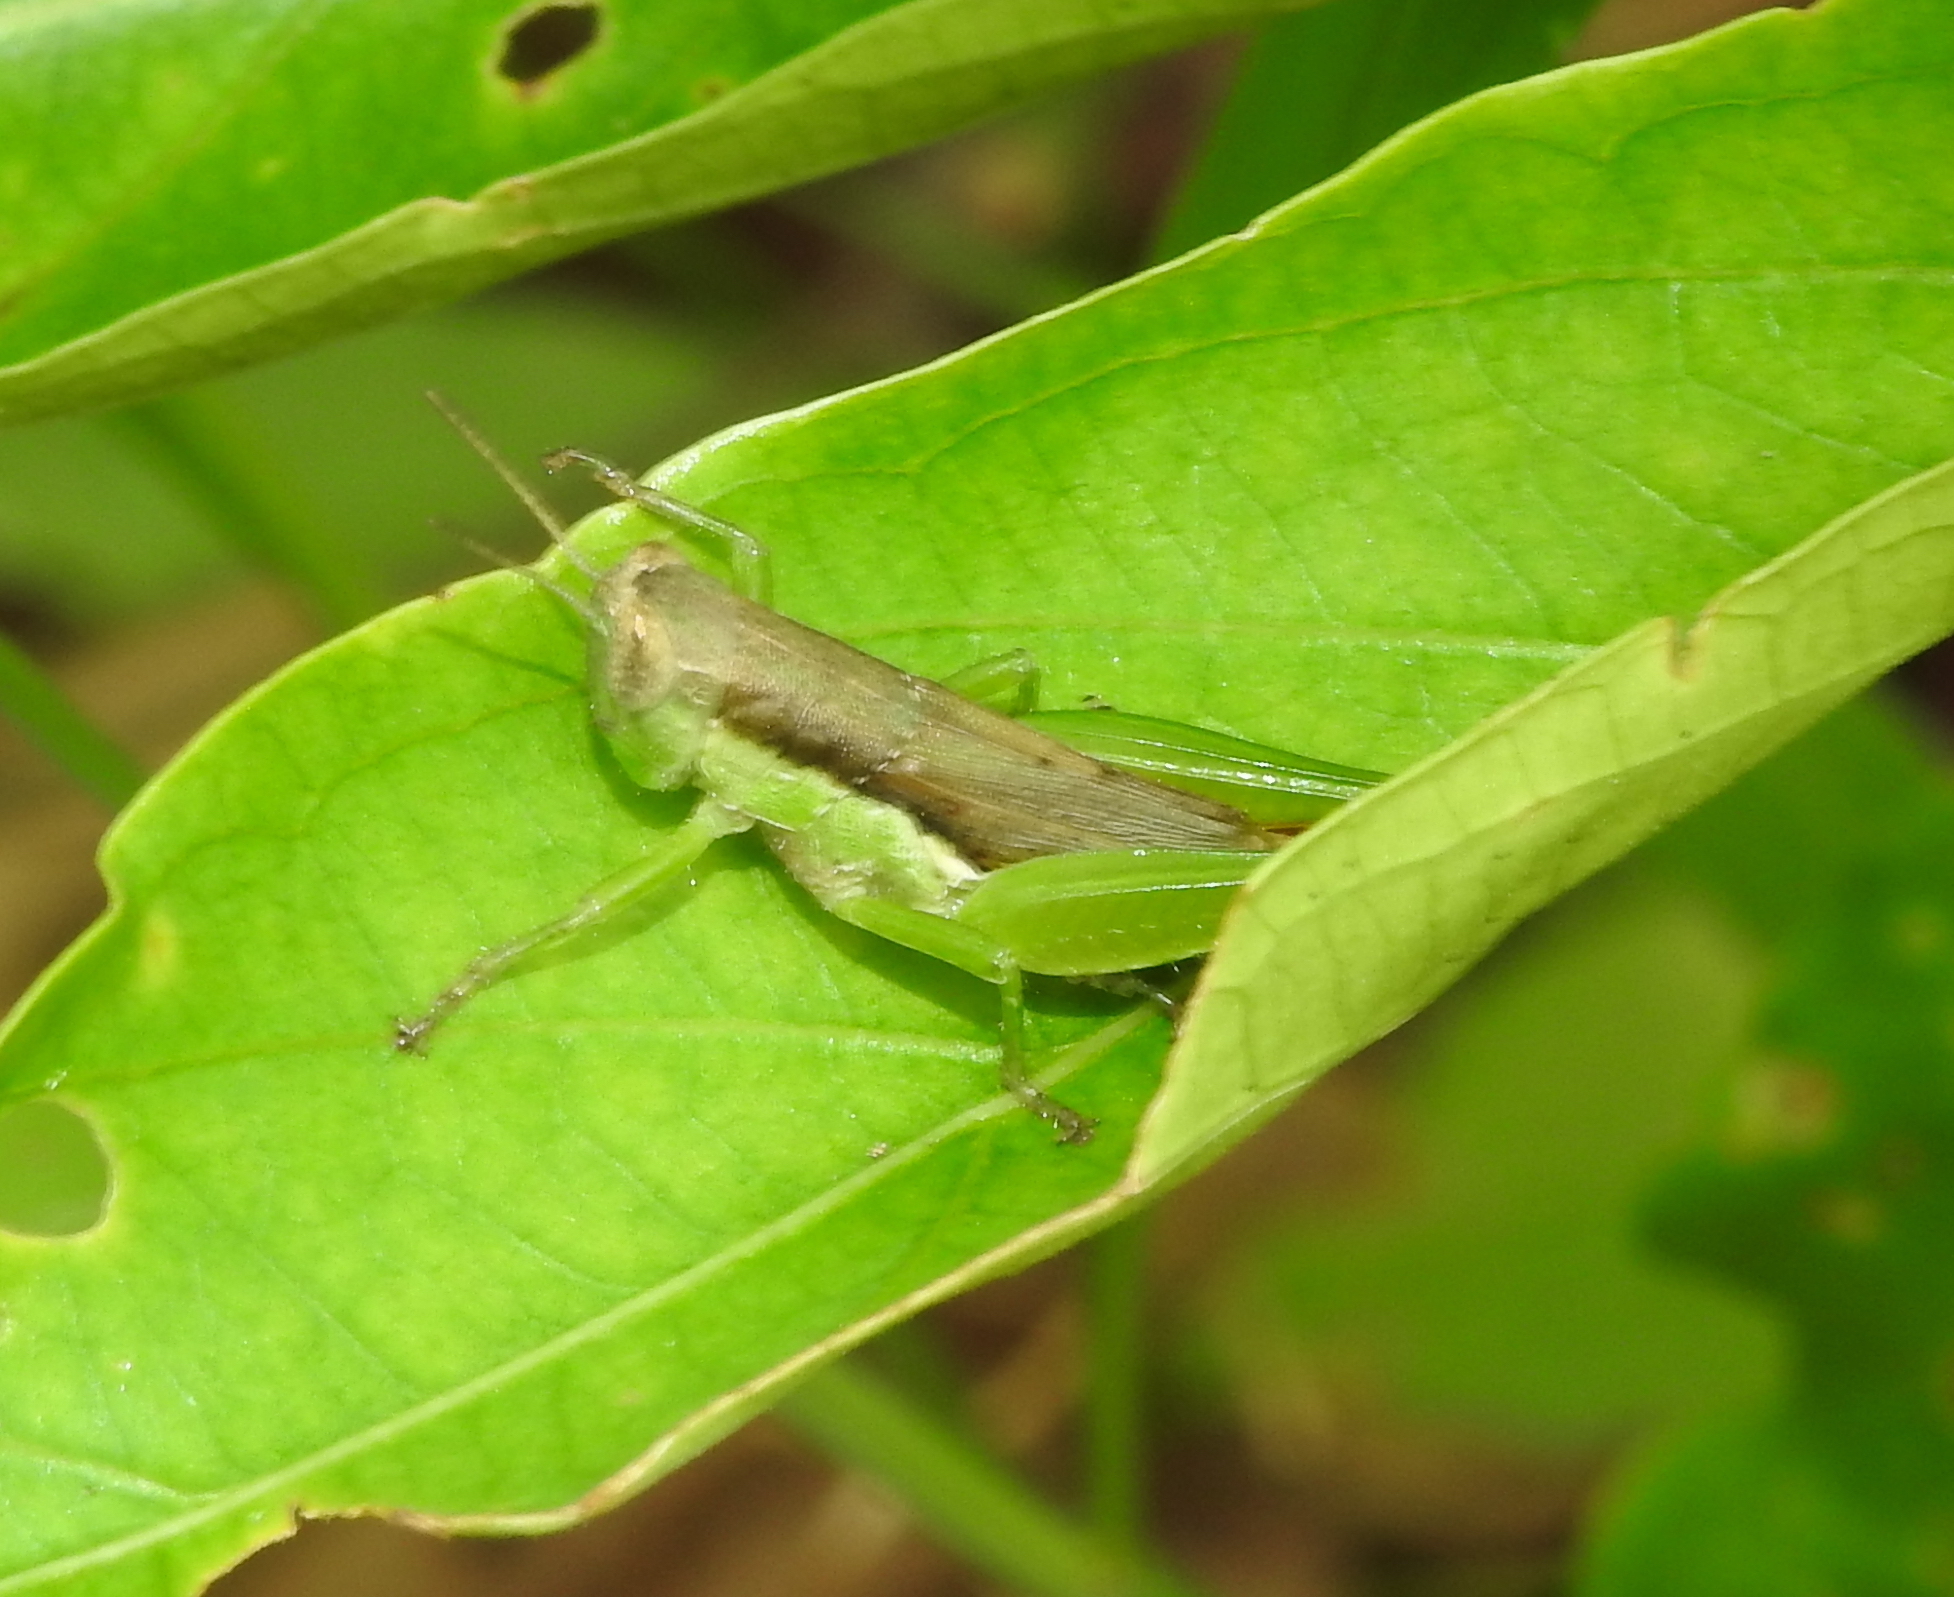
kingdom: Animalia
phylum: Arthropoda
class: Insecta
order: Orthoptera
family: Acrididae
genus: Pseudoxya
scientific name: Pseudoxya diminuta
